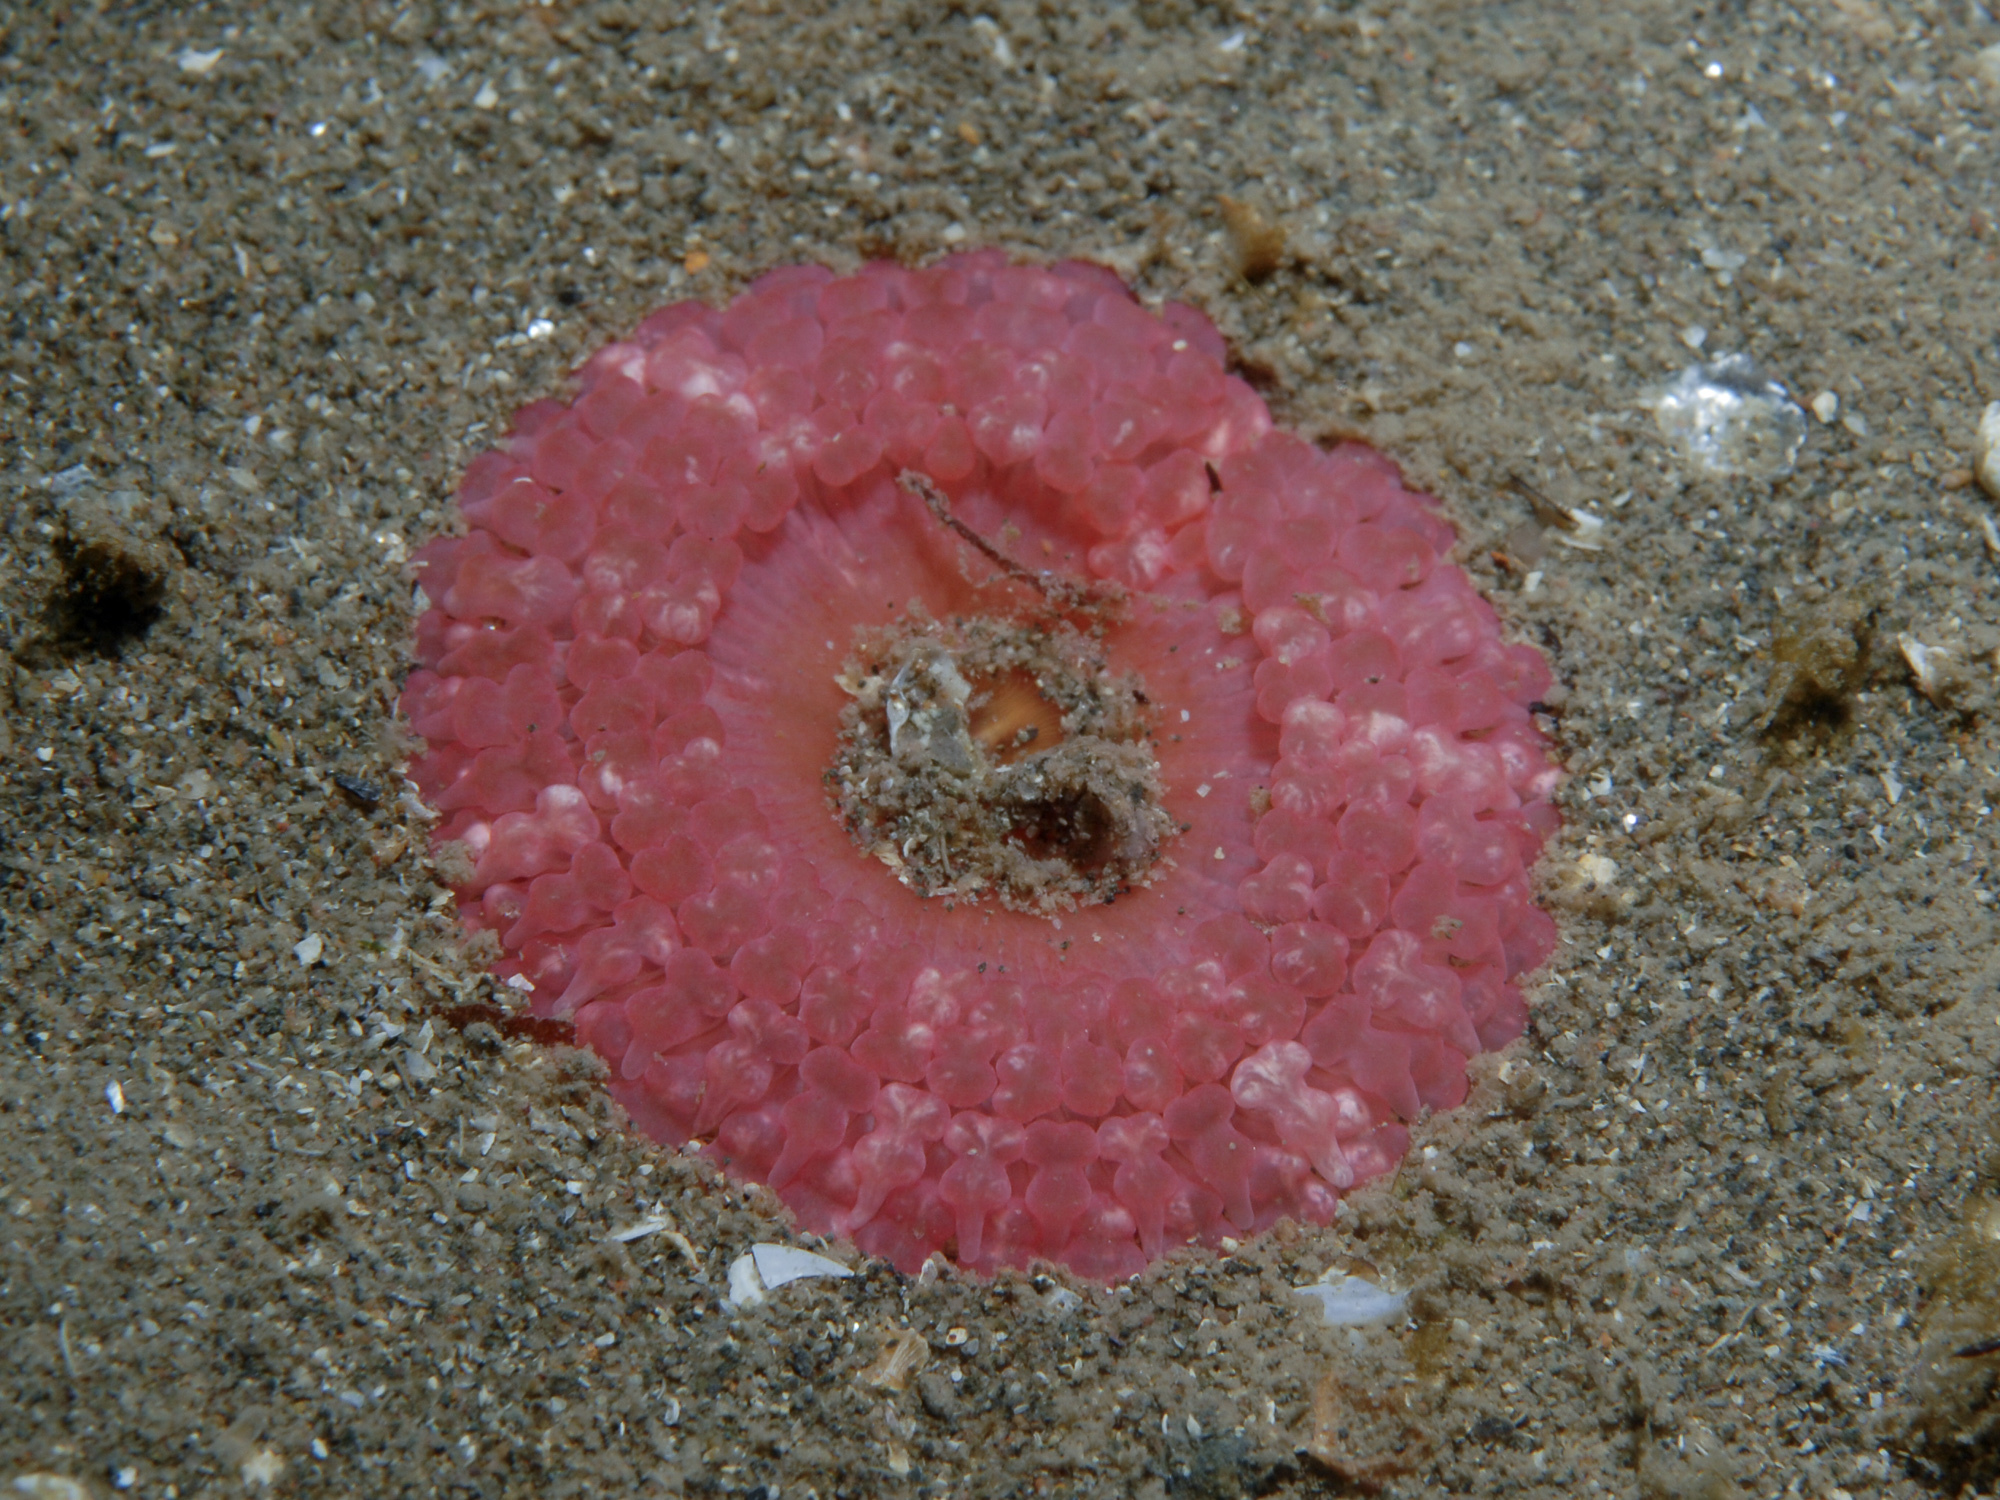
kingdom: Animalia
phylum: Cnidaria
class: Anthozoa
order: Actiniaria
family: Capneidae
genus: Capnea
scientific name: Capnea sanguinea
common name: Imperial anemone
